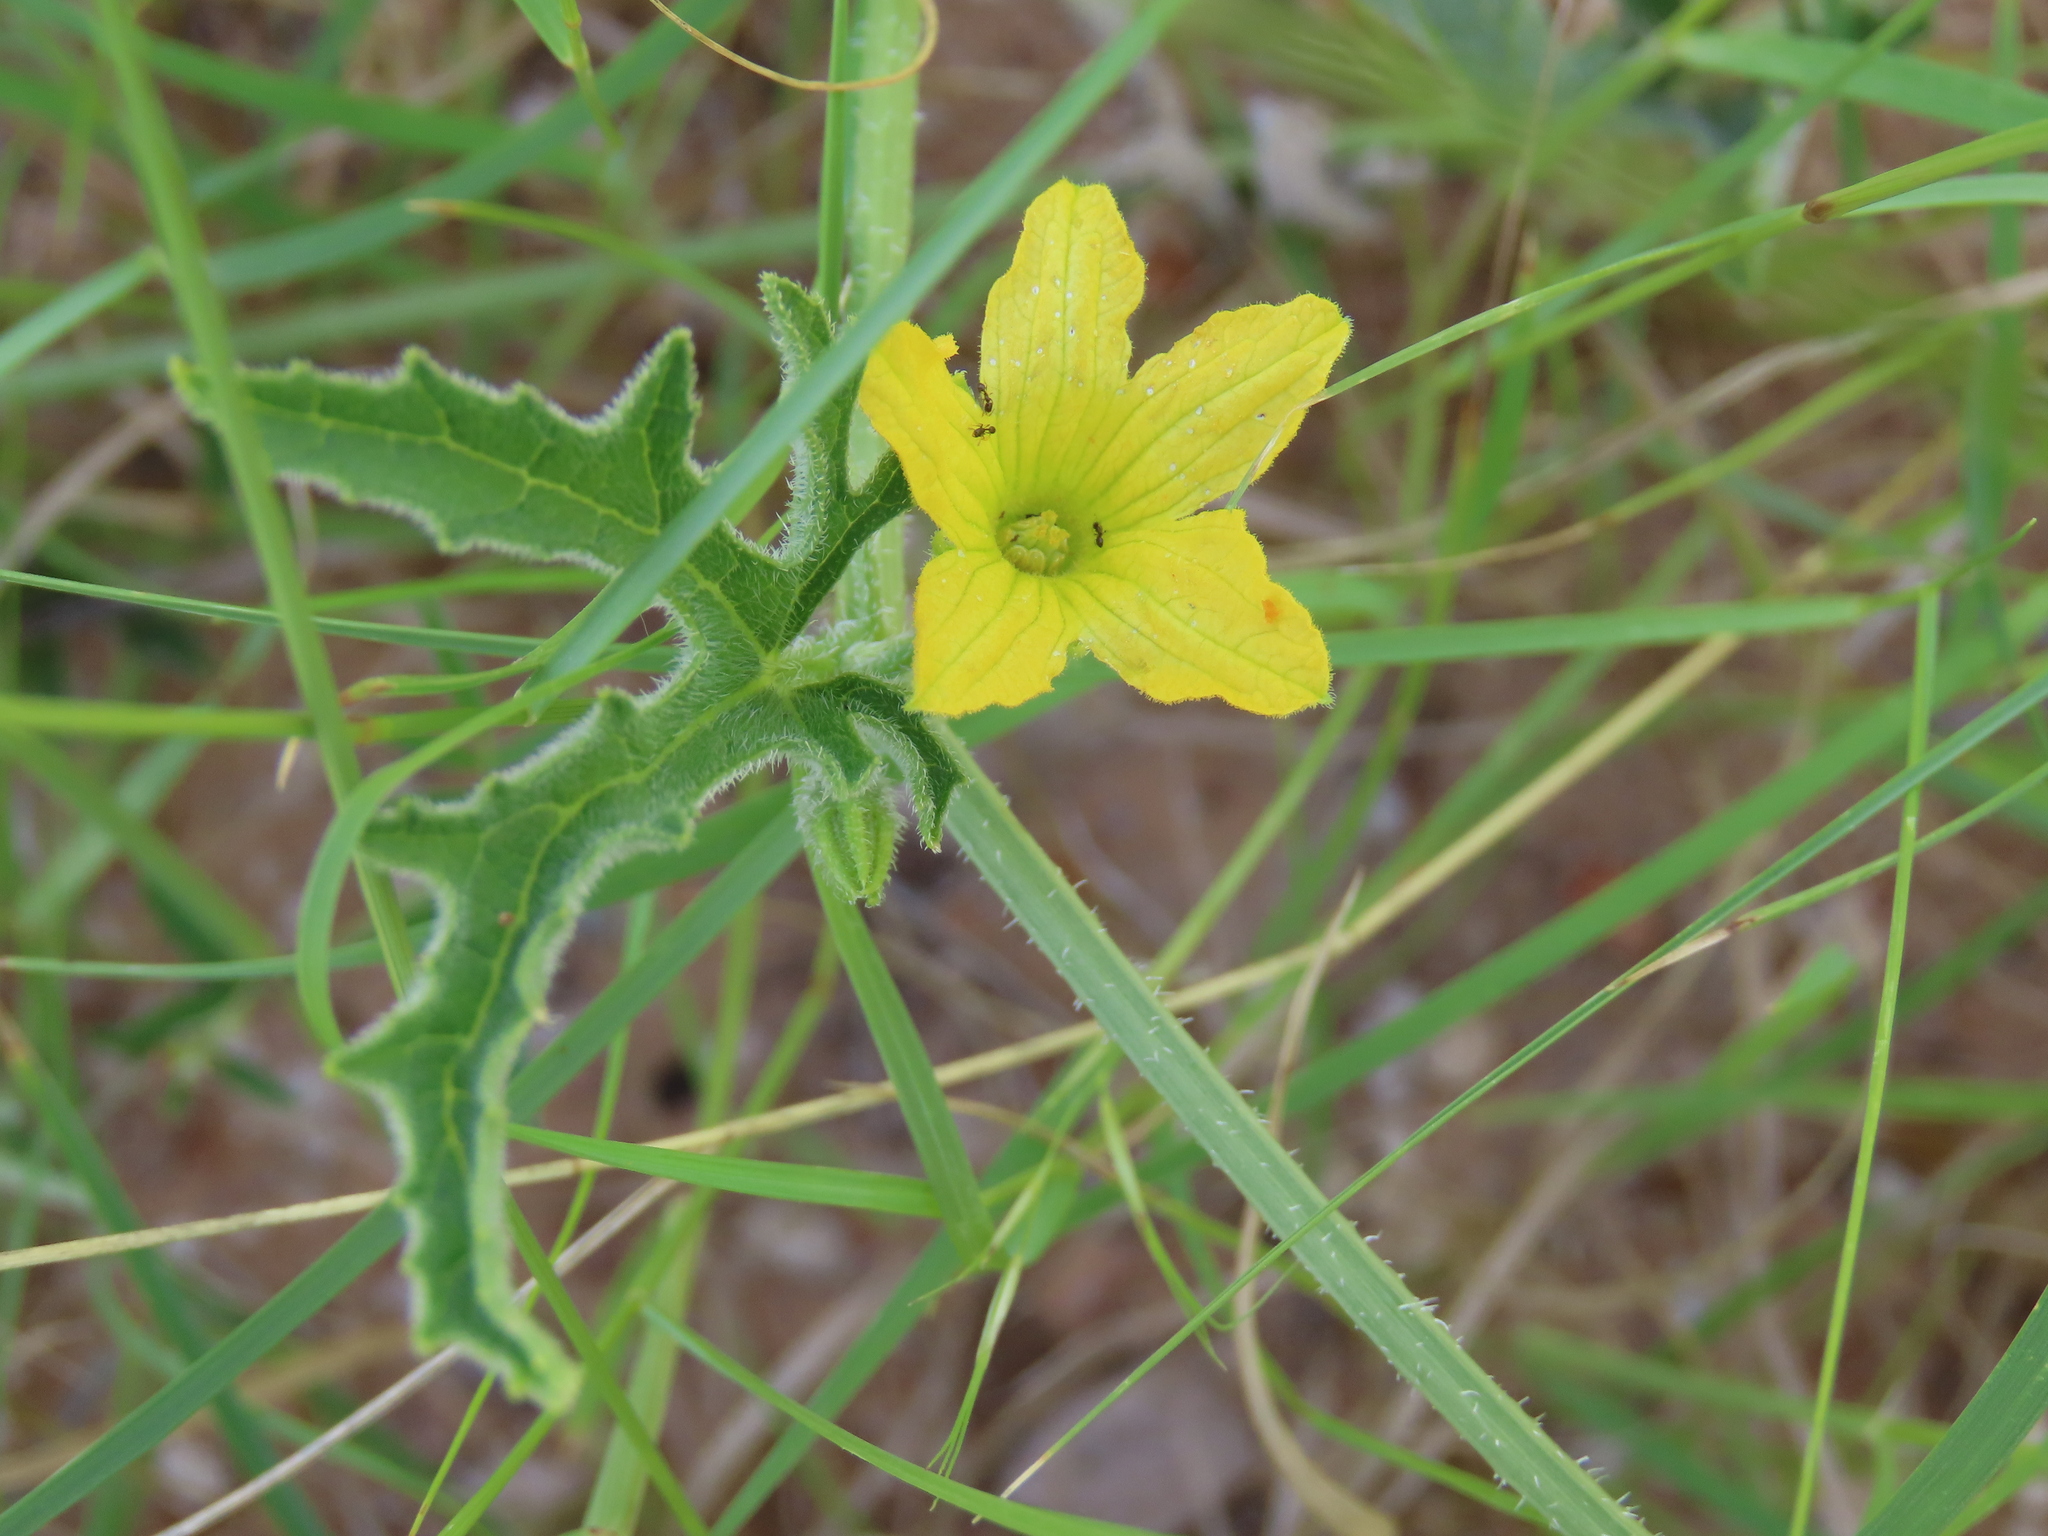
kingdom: Plantae
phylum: Tracheophyta
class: Magnoliopsida
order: Cucurbitales
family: Cucurbitaceae
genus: Cucumis
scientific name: Cucumis kalahariensis
